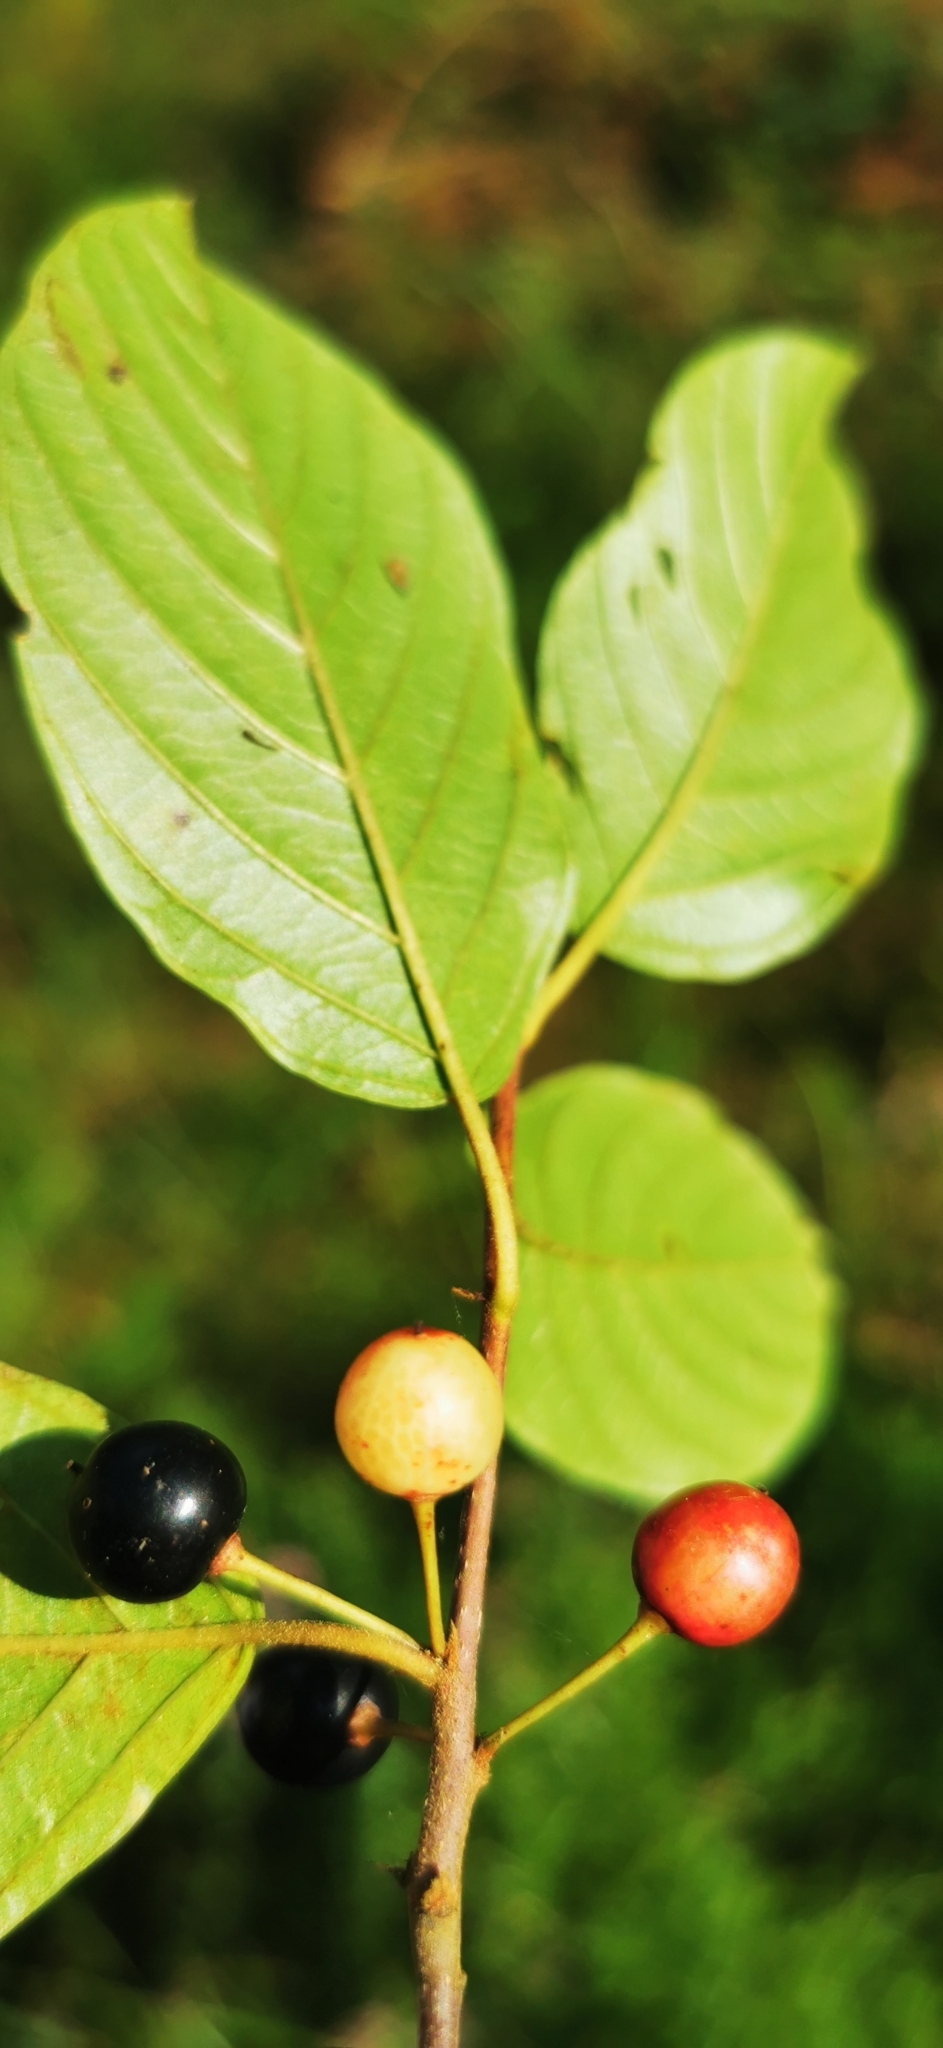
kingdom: Plantae
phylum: Tracheophyta
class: Magnoliopsida
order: Rosales
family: Rhamnaceae
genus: Frangula
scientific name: Frangula alnus
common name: Alder buckthorn
